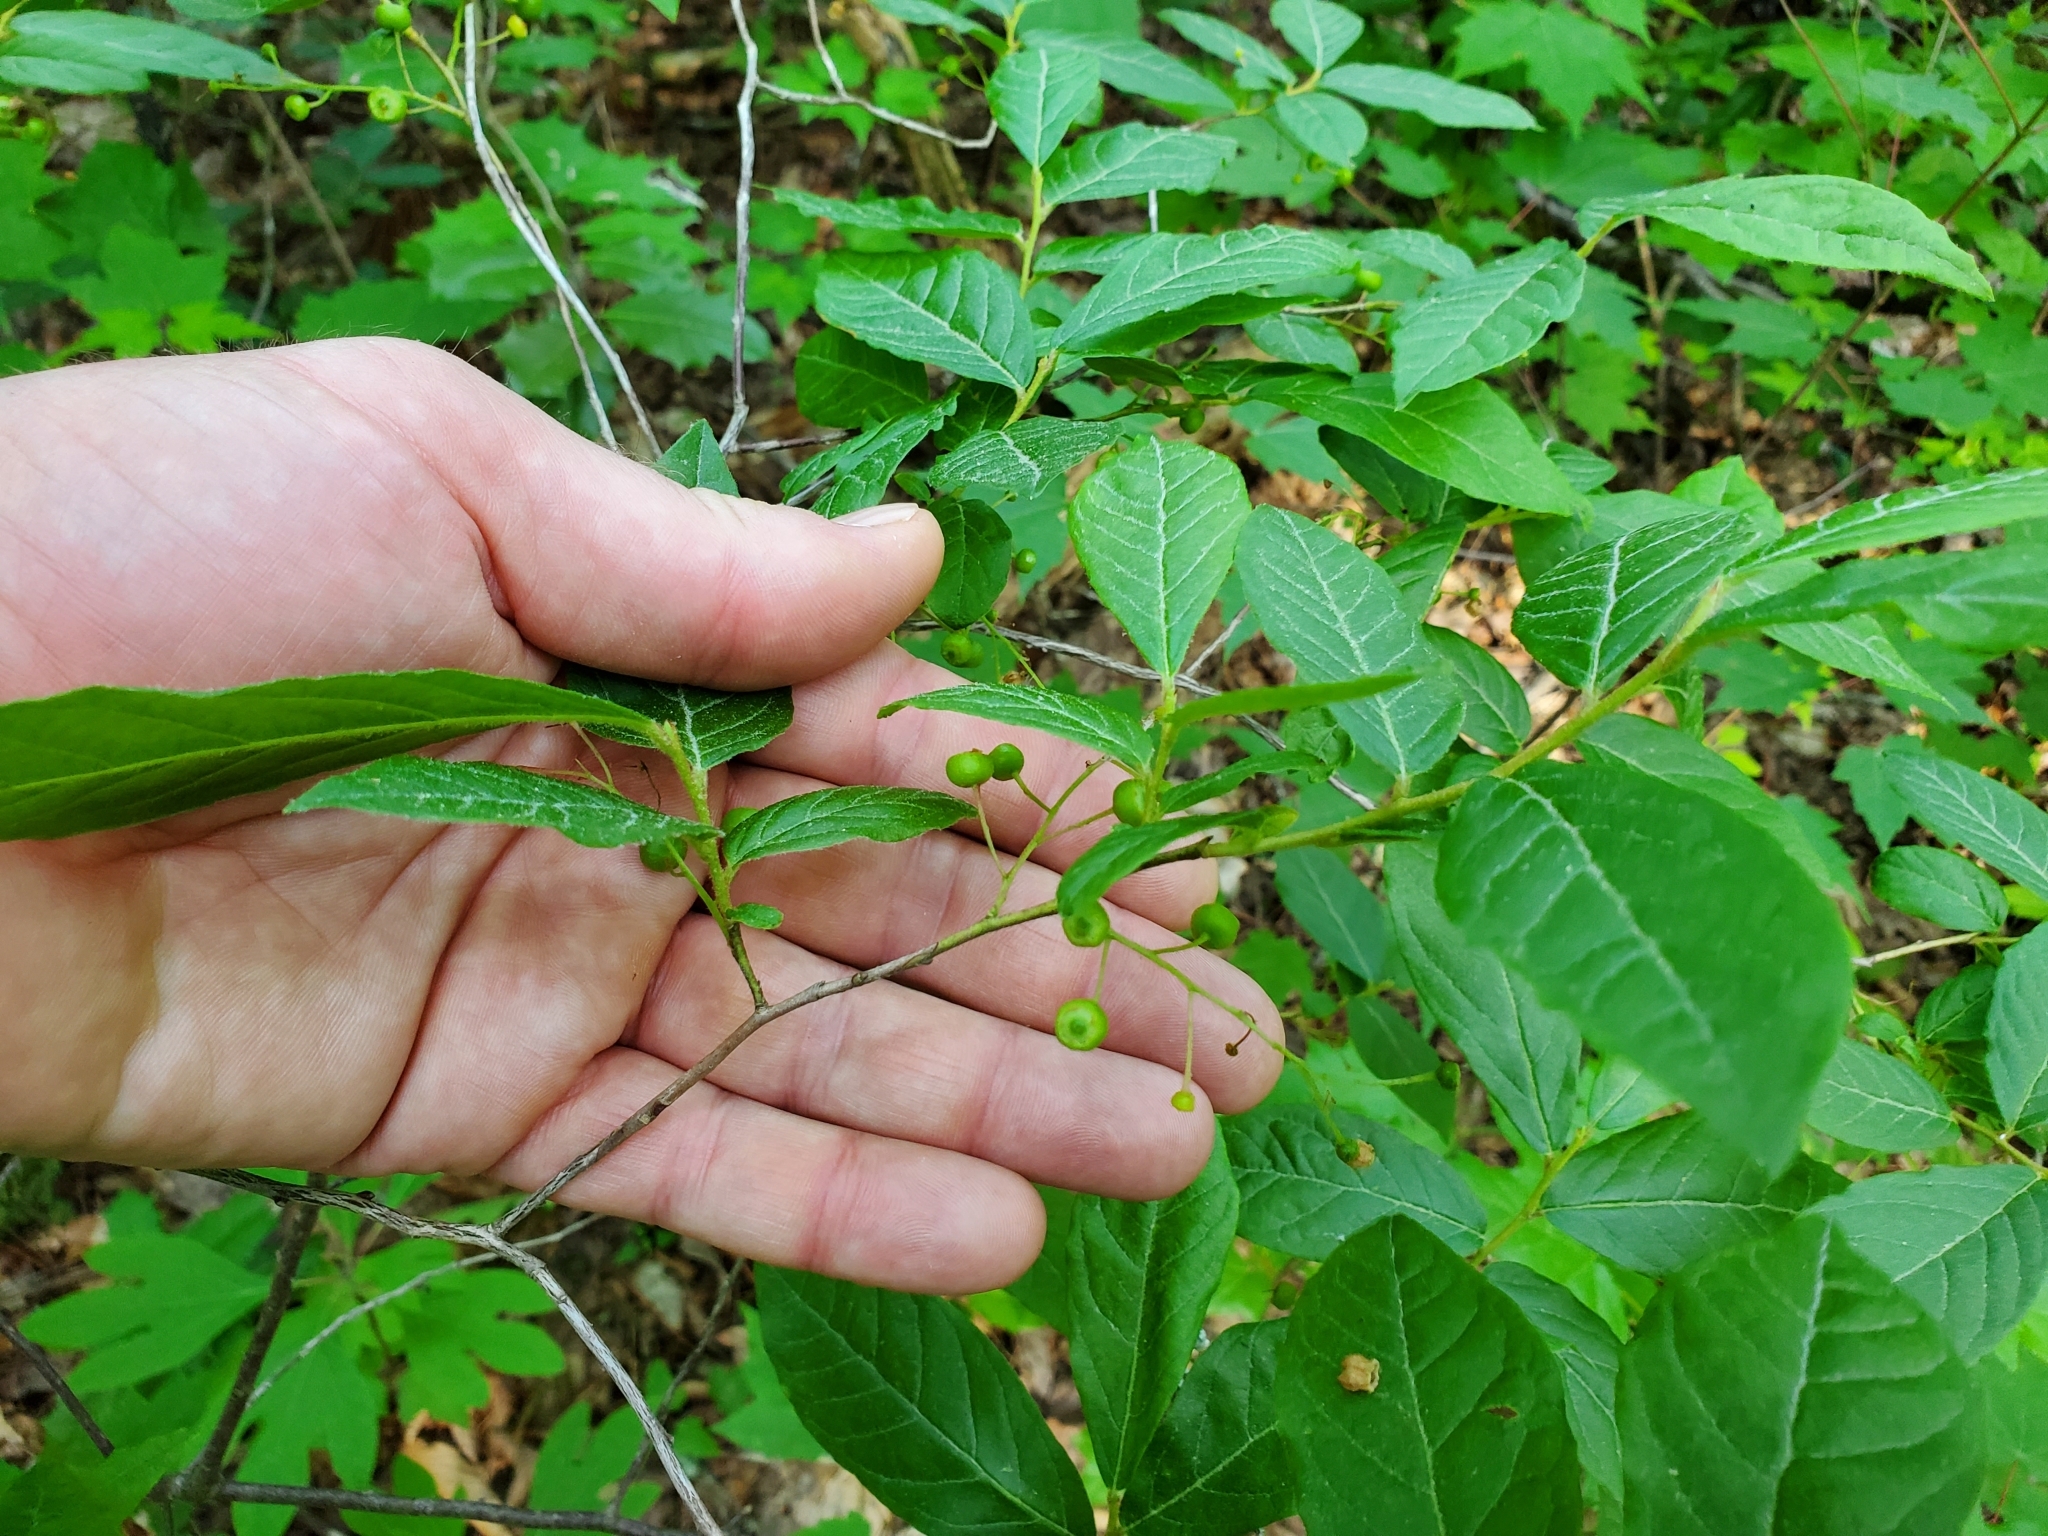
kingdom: Plantae
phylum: Tracheophyta
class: Magnoliopsida
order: Santalales
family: Cervantesiaceae
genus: Pyrularia
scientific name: Pyrularia pubera
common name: Oilnut
